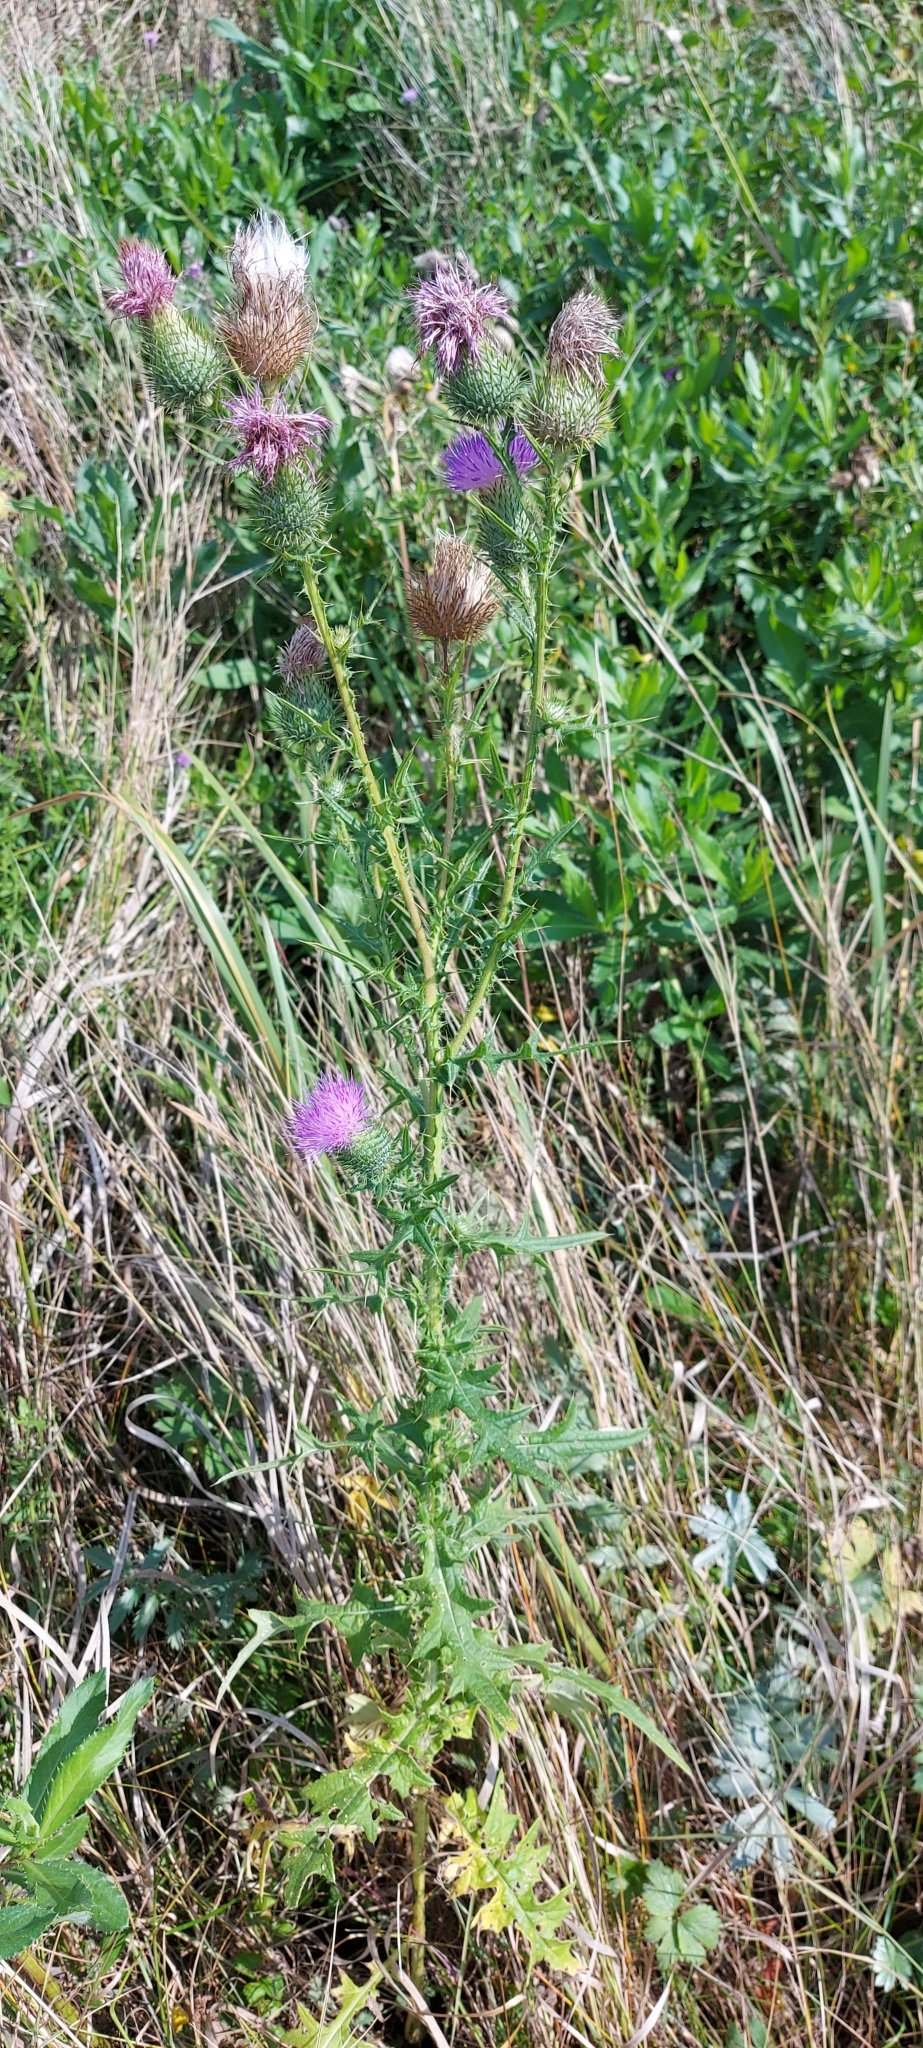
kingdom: Plantae
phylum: Tracheophyta
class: Magnoliopsida
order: Asterales
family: Asteraceae
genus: Cirsium
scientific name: Cirsium vulgare
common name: Bull thistle
